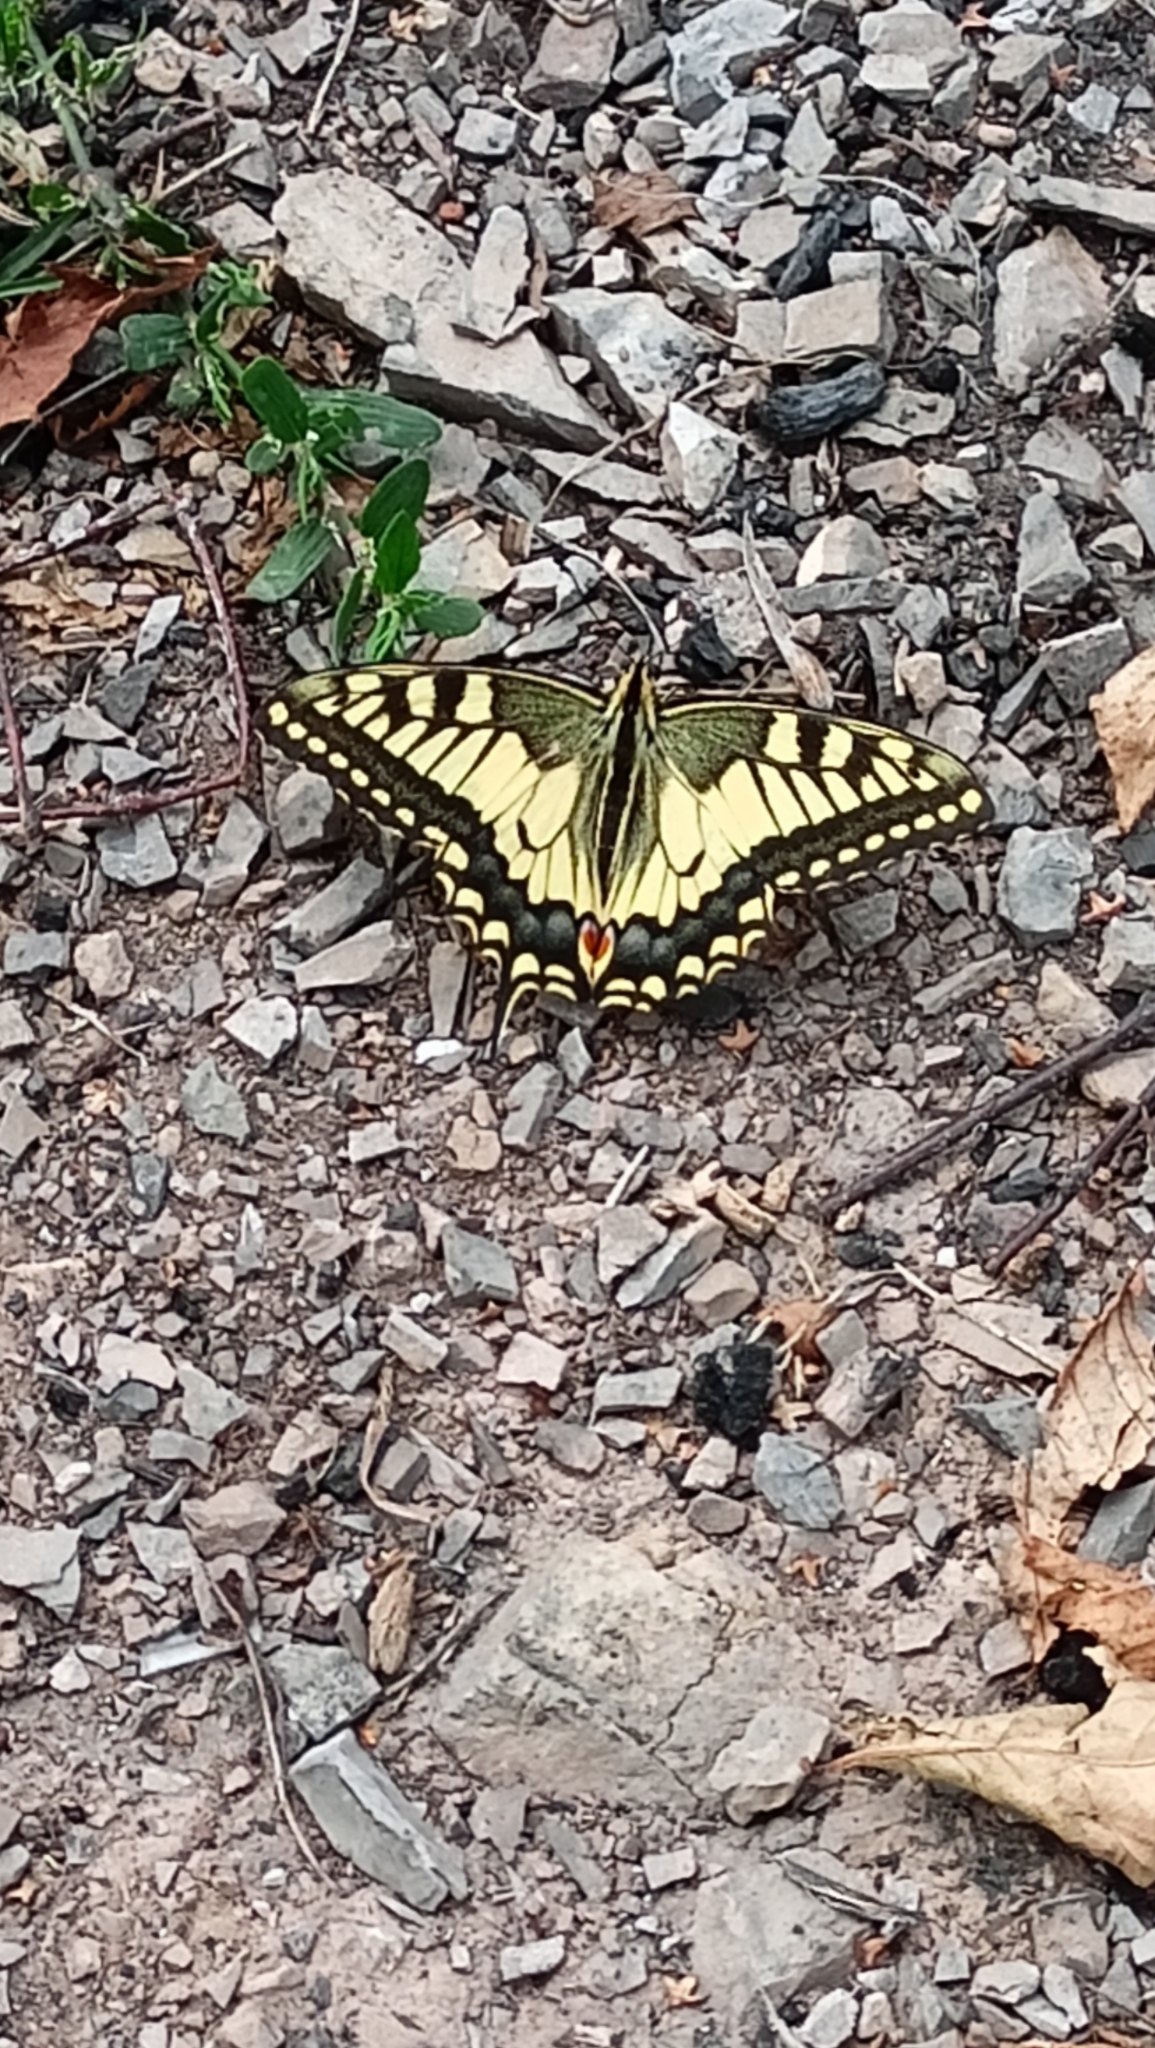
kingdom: Animalia
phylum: Arthropoda
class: Insecta
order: Lepidoptera
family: Papilionidae
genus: Papilio
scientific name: Papilio machaon
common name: Swallowtail
